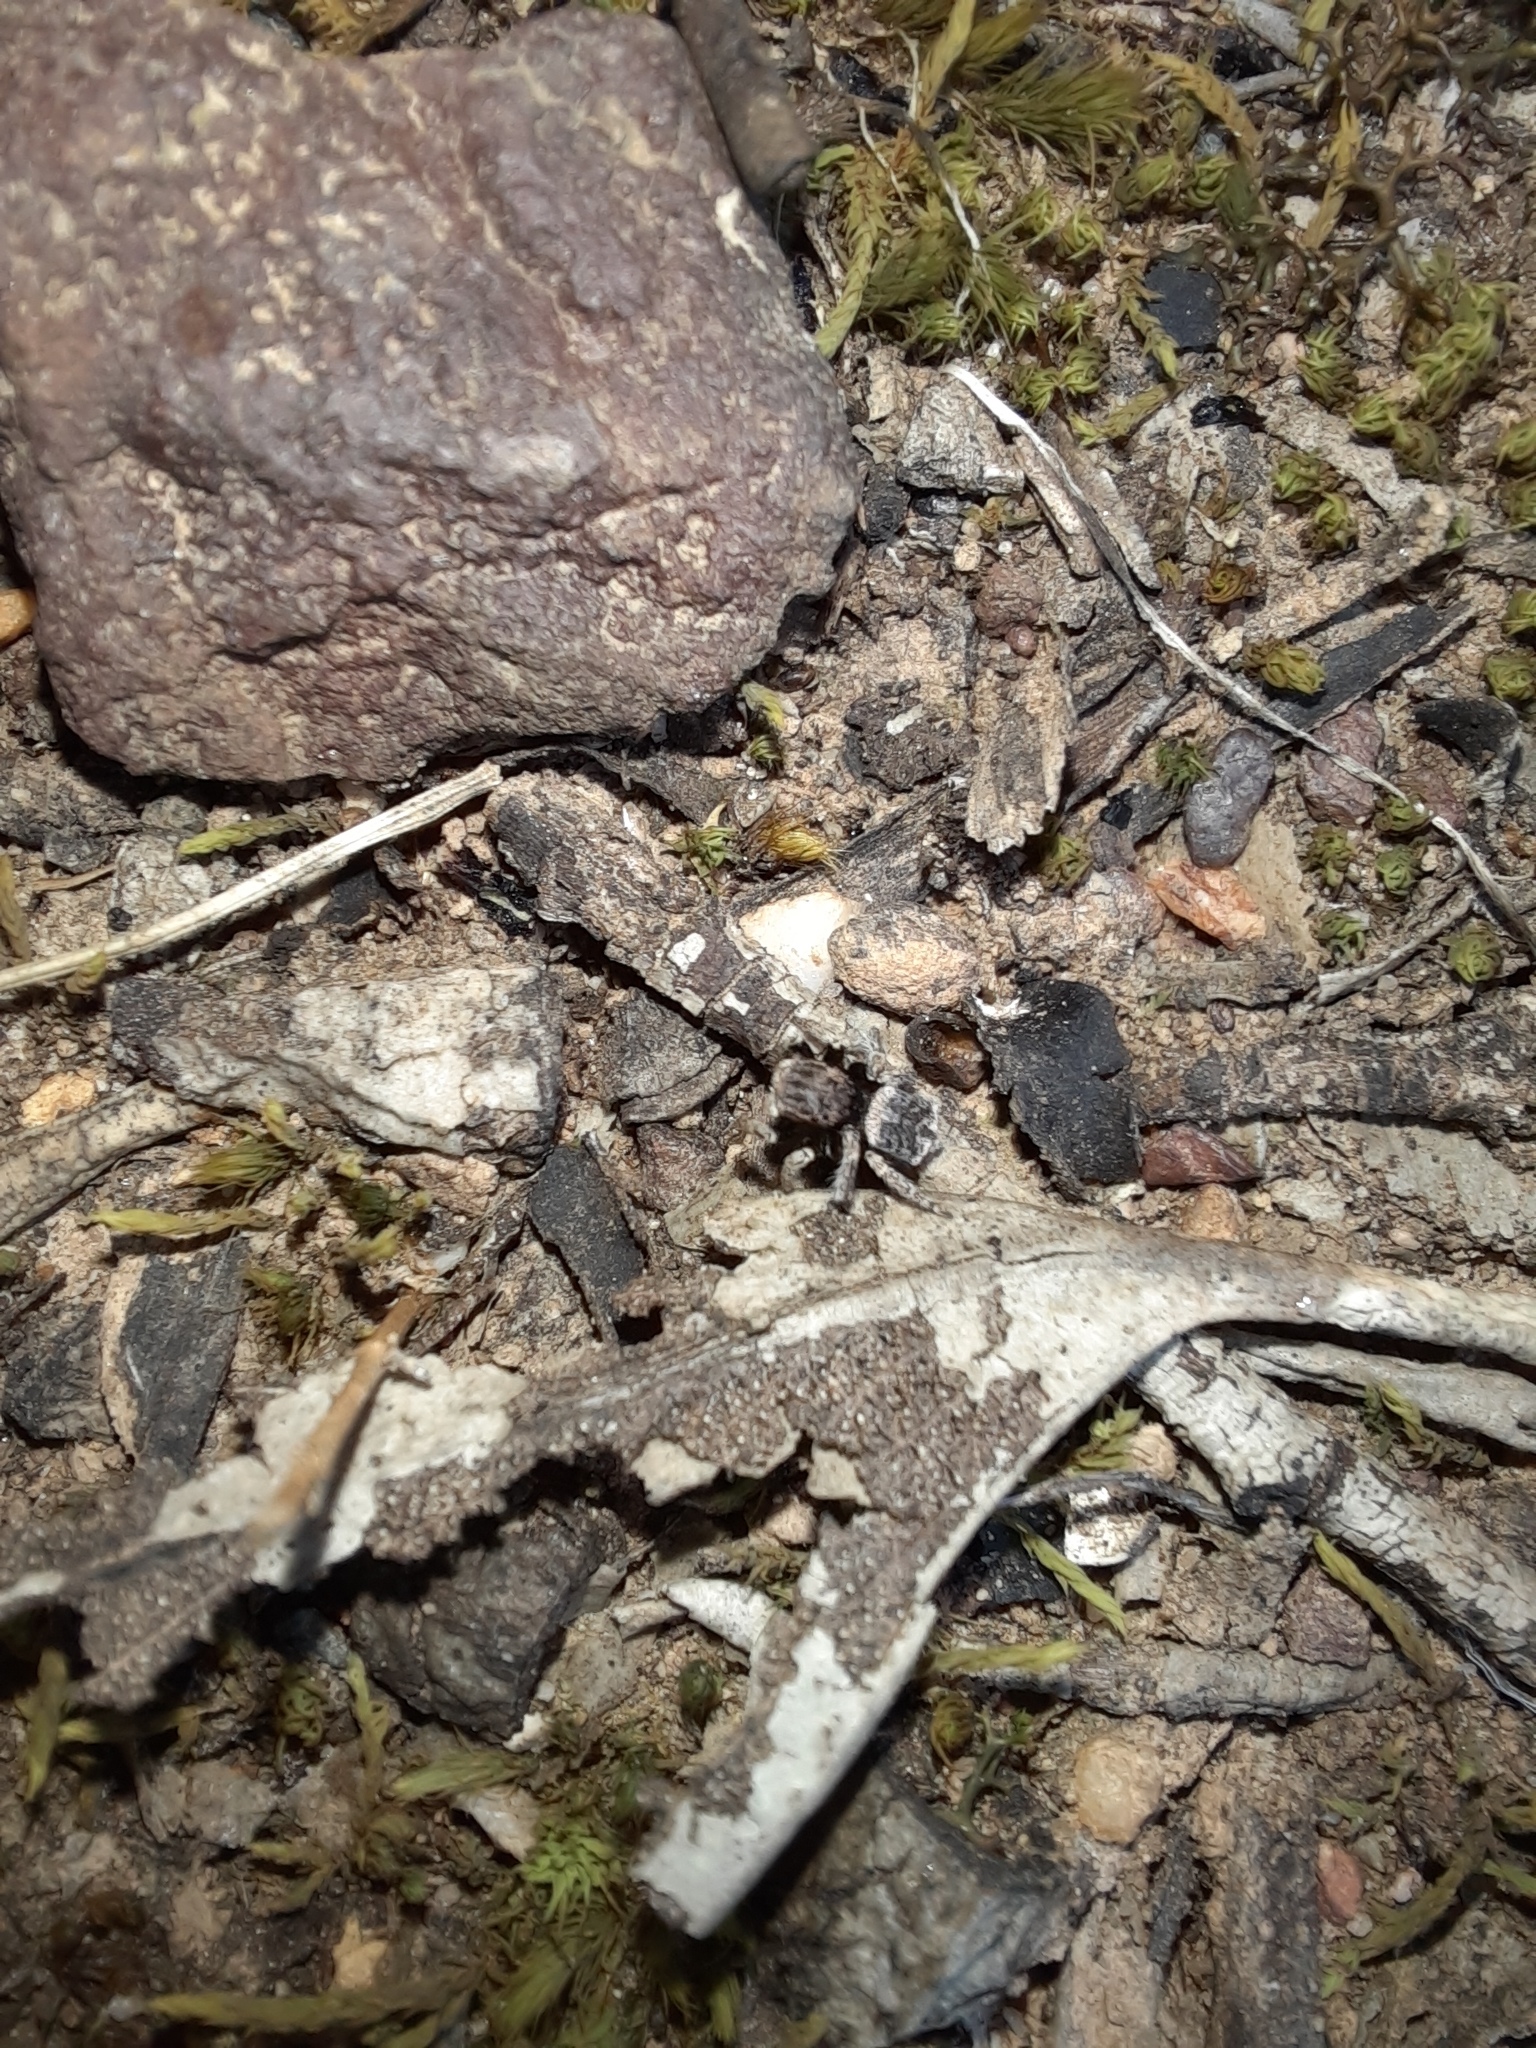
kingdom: Animalia
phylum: Arthropoda
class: Arachnida
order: Araneae
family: Salticidae
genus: Maratus
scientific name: Maratus vespertilio
